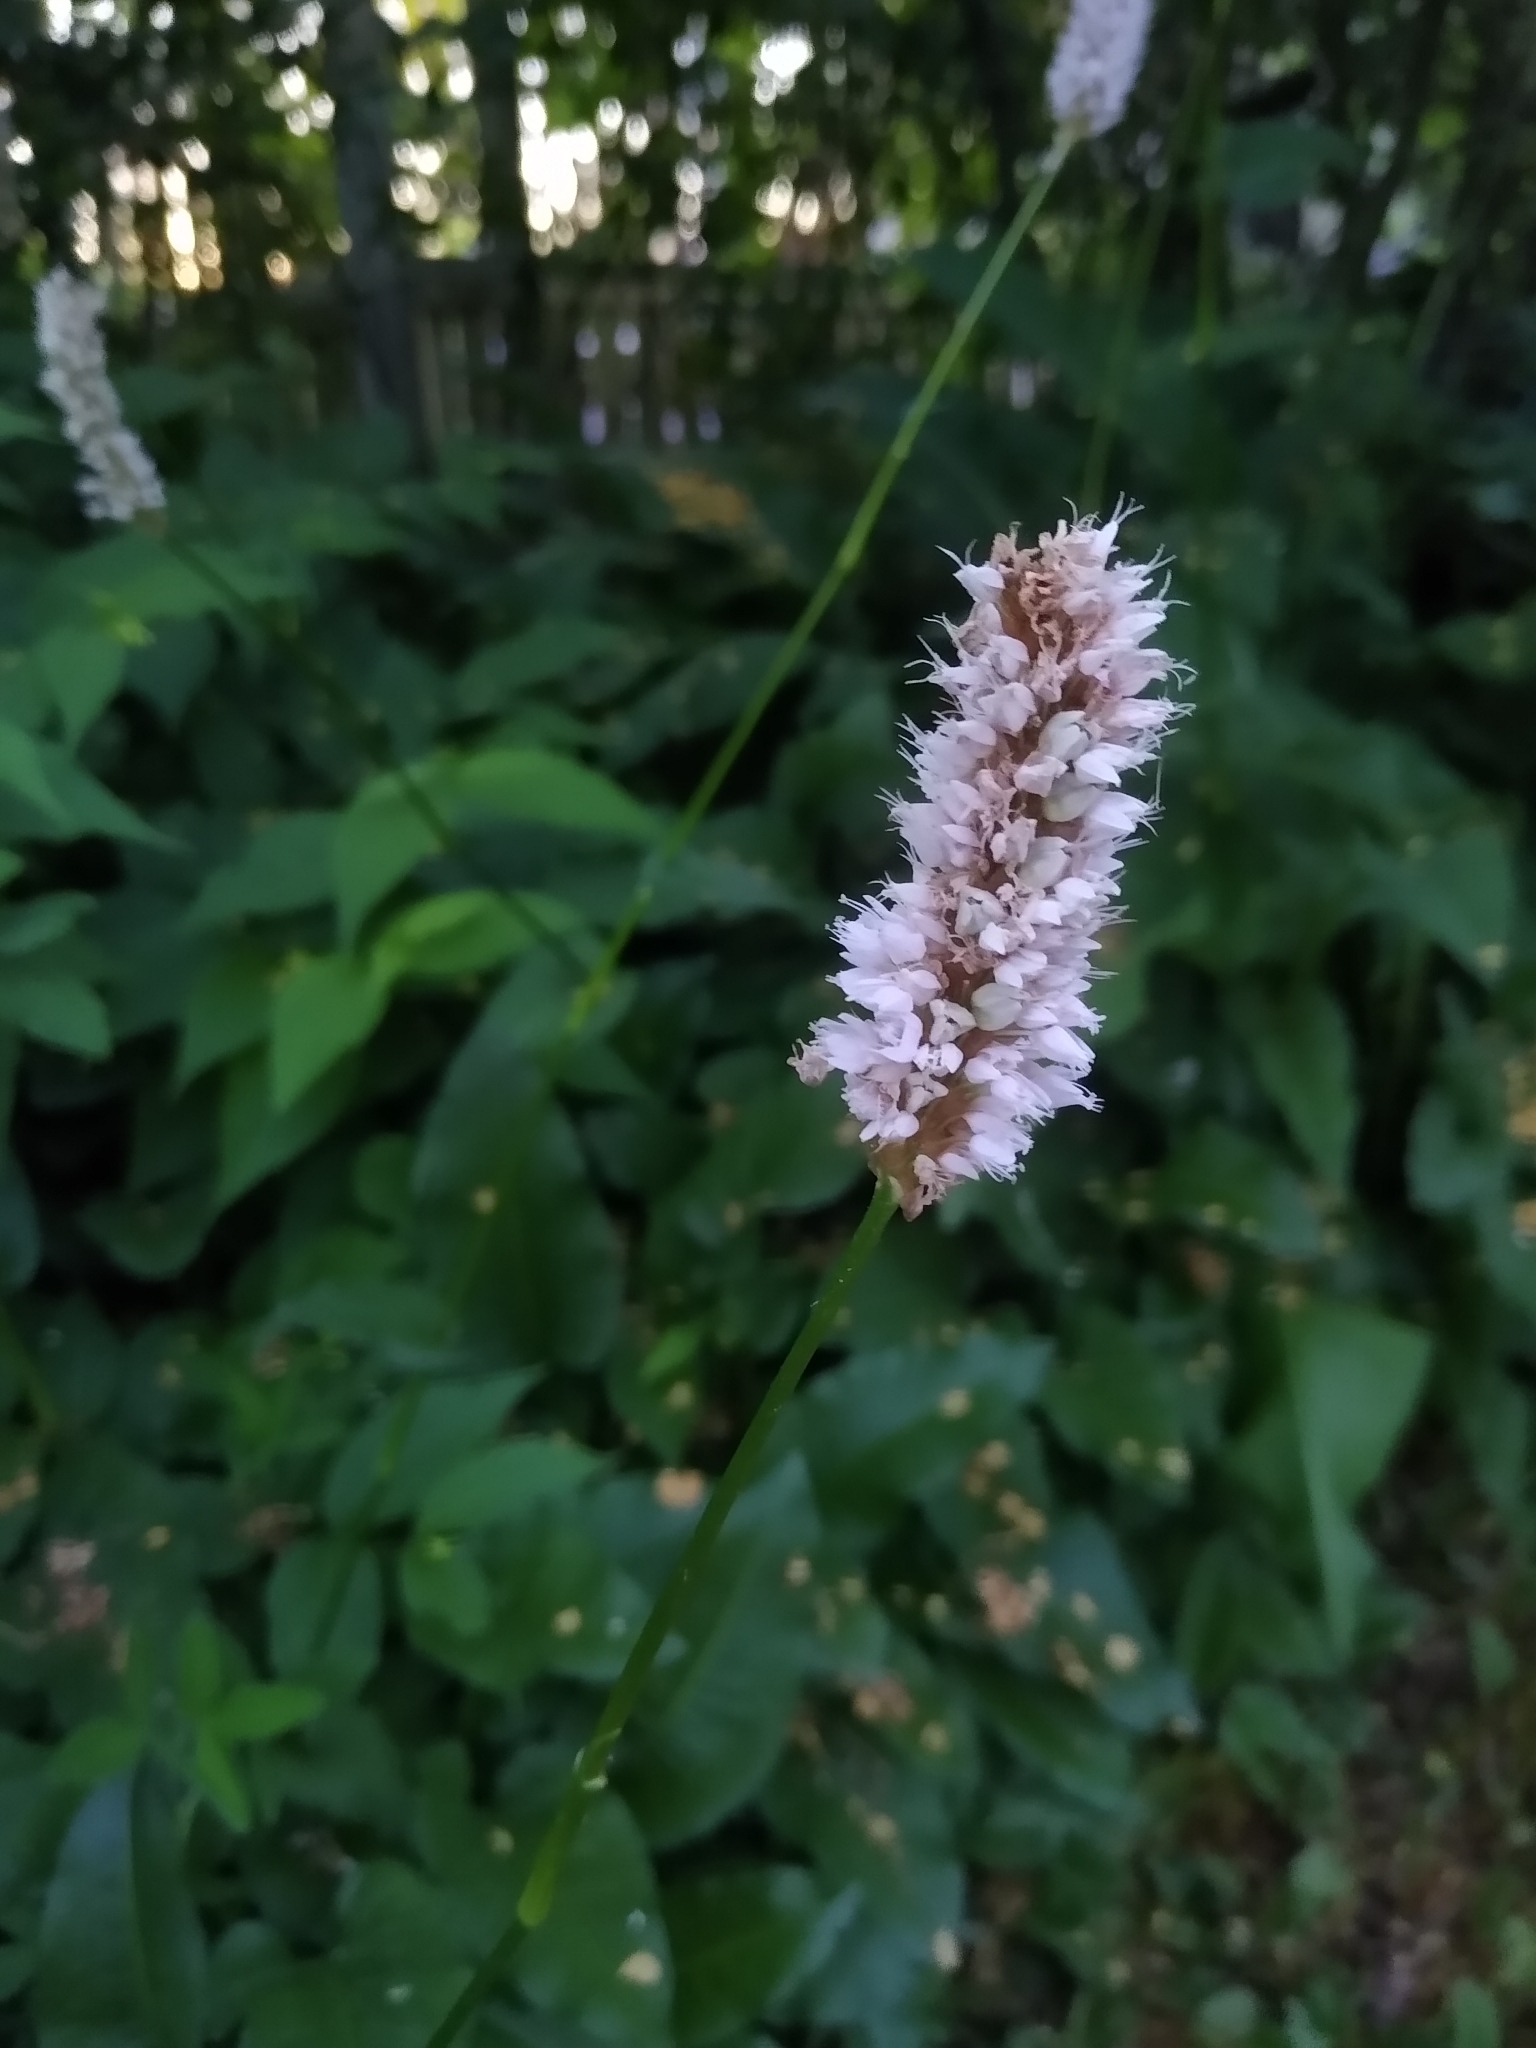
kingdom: Plantae
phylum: Tracheophyta
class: Magnoliopsida
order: Caryophyllales
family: Polygonaceae
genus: Bistorta
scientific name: Bistorta officinalis
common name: Common bistort
